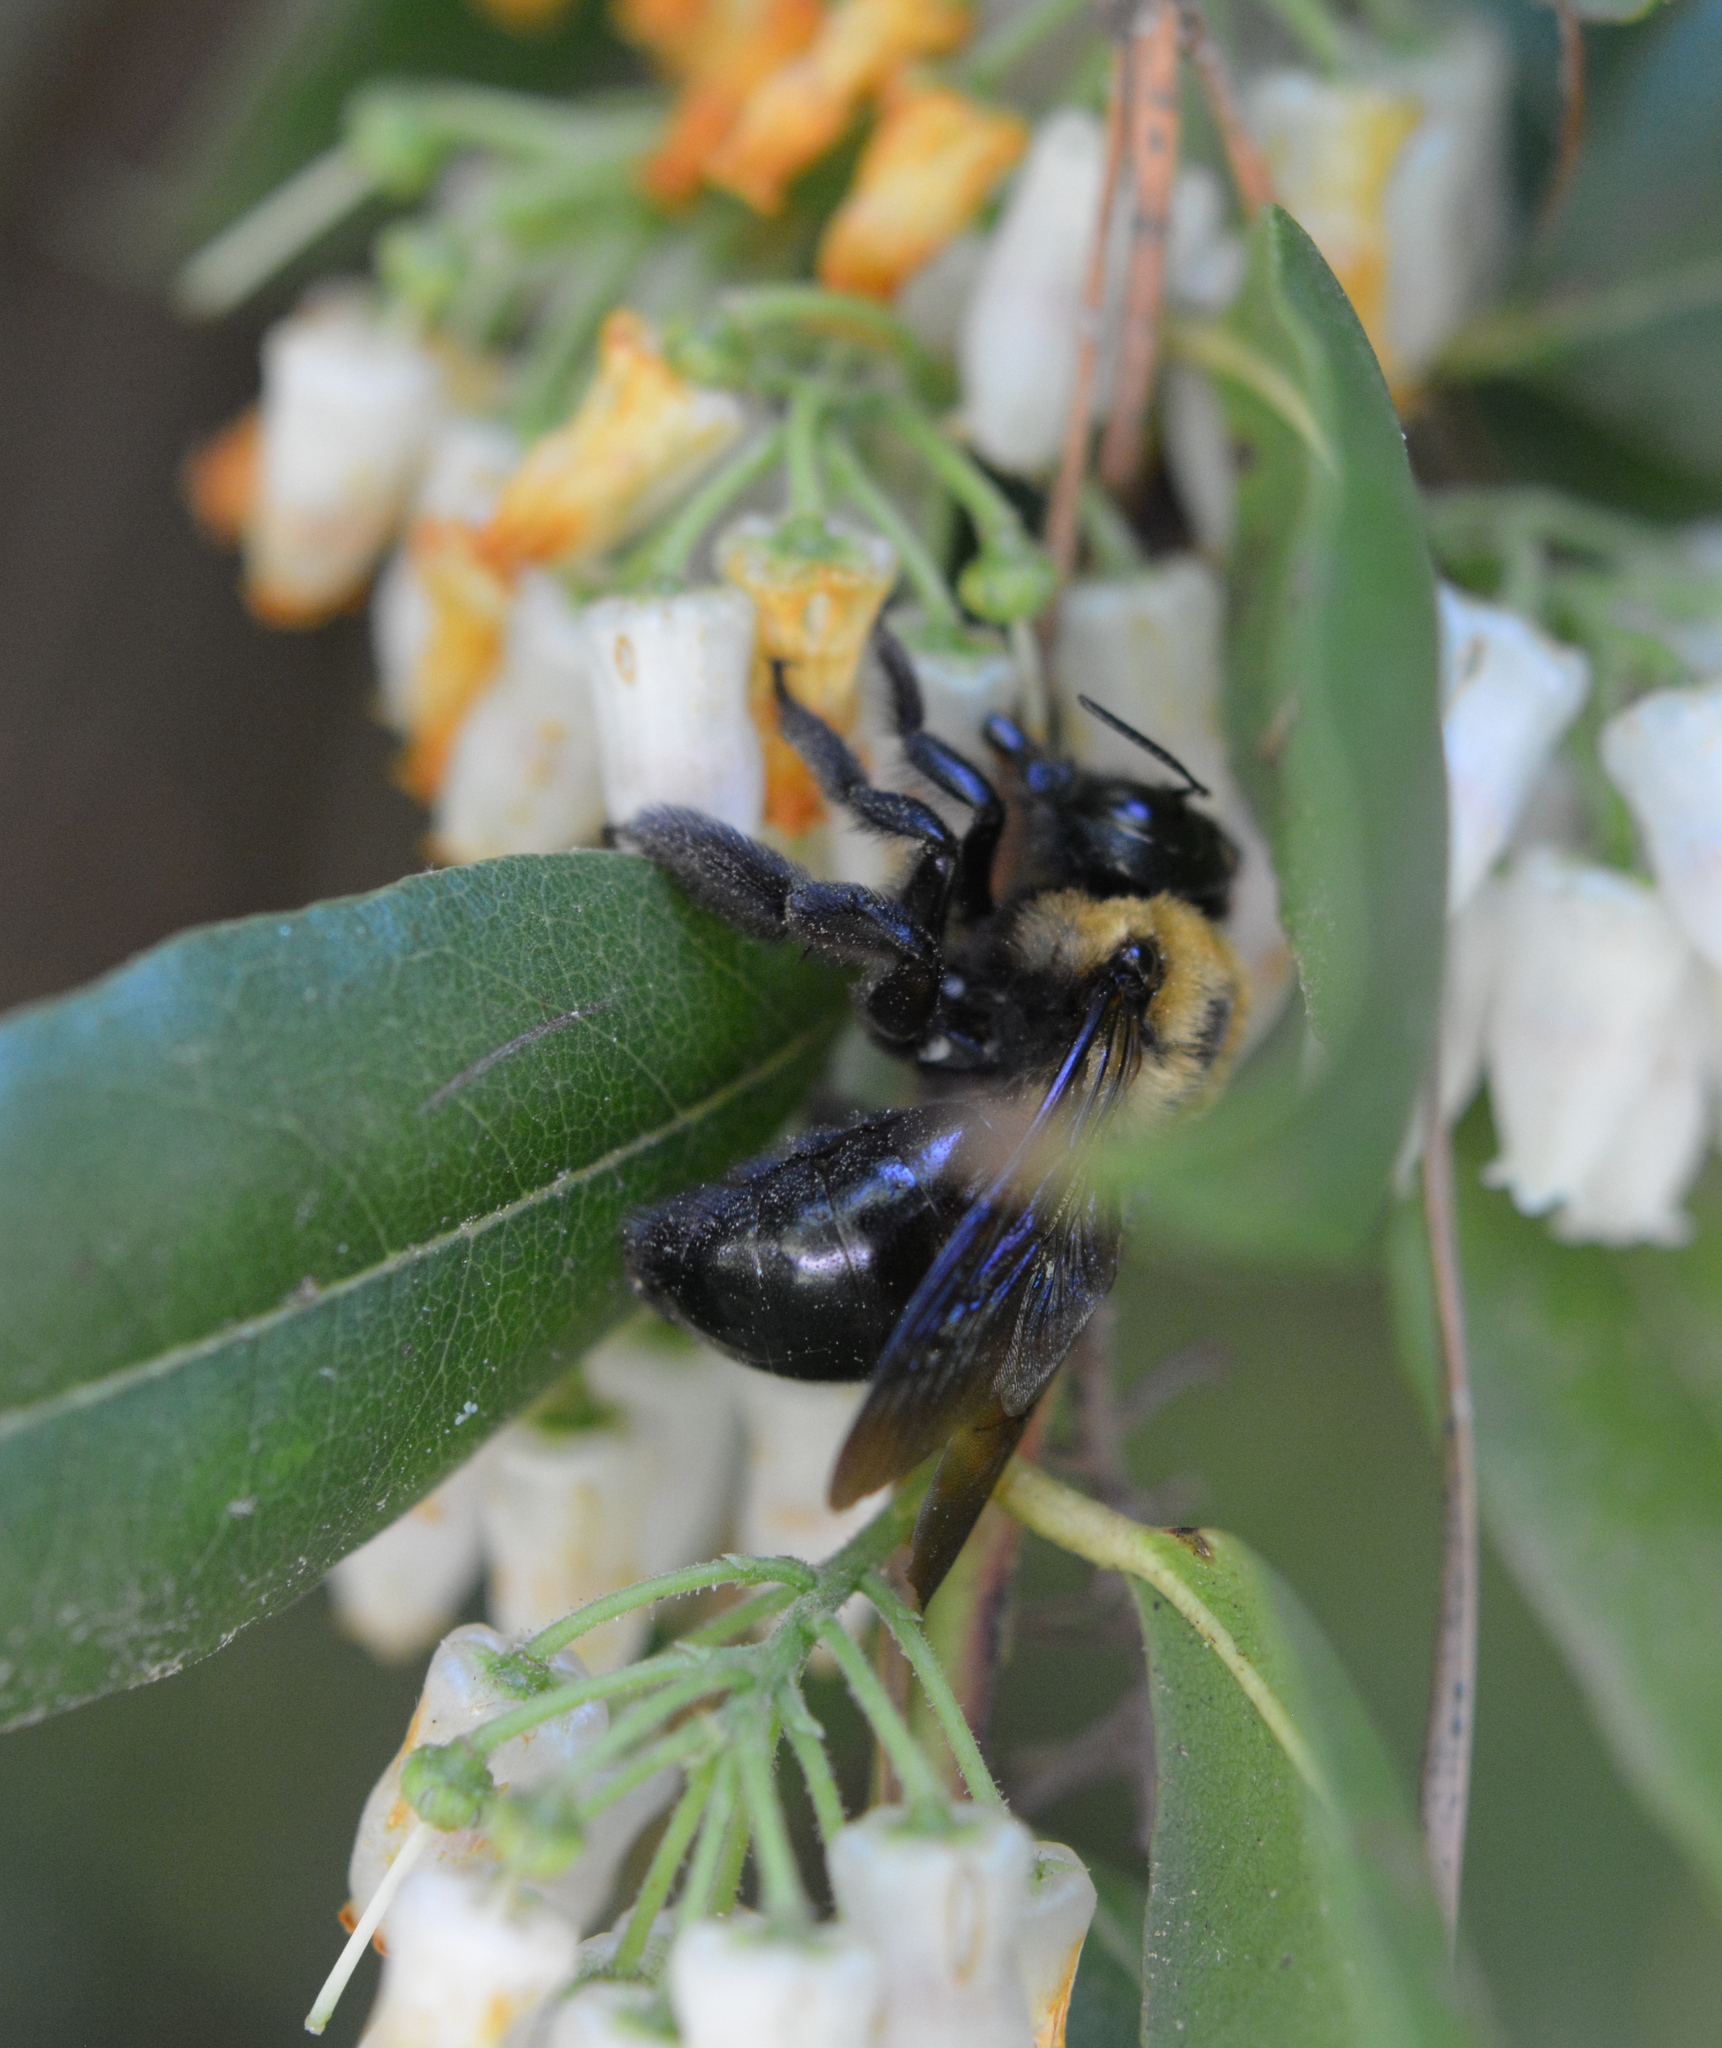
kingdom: Animalia
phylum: Arthropoda
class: Insecta
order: Hymenoptera
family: Apidae
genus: Xylocopa
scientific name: Xylocopa virginica
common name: Carpenter bee
